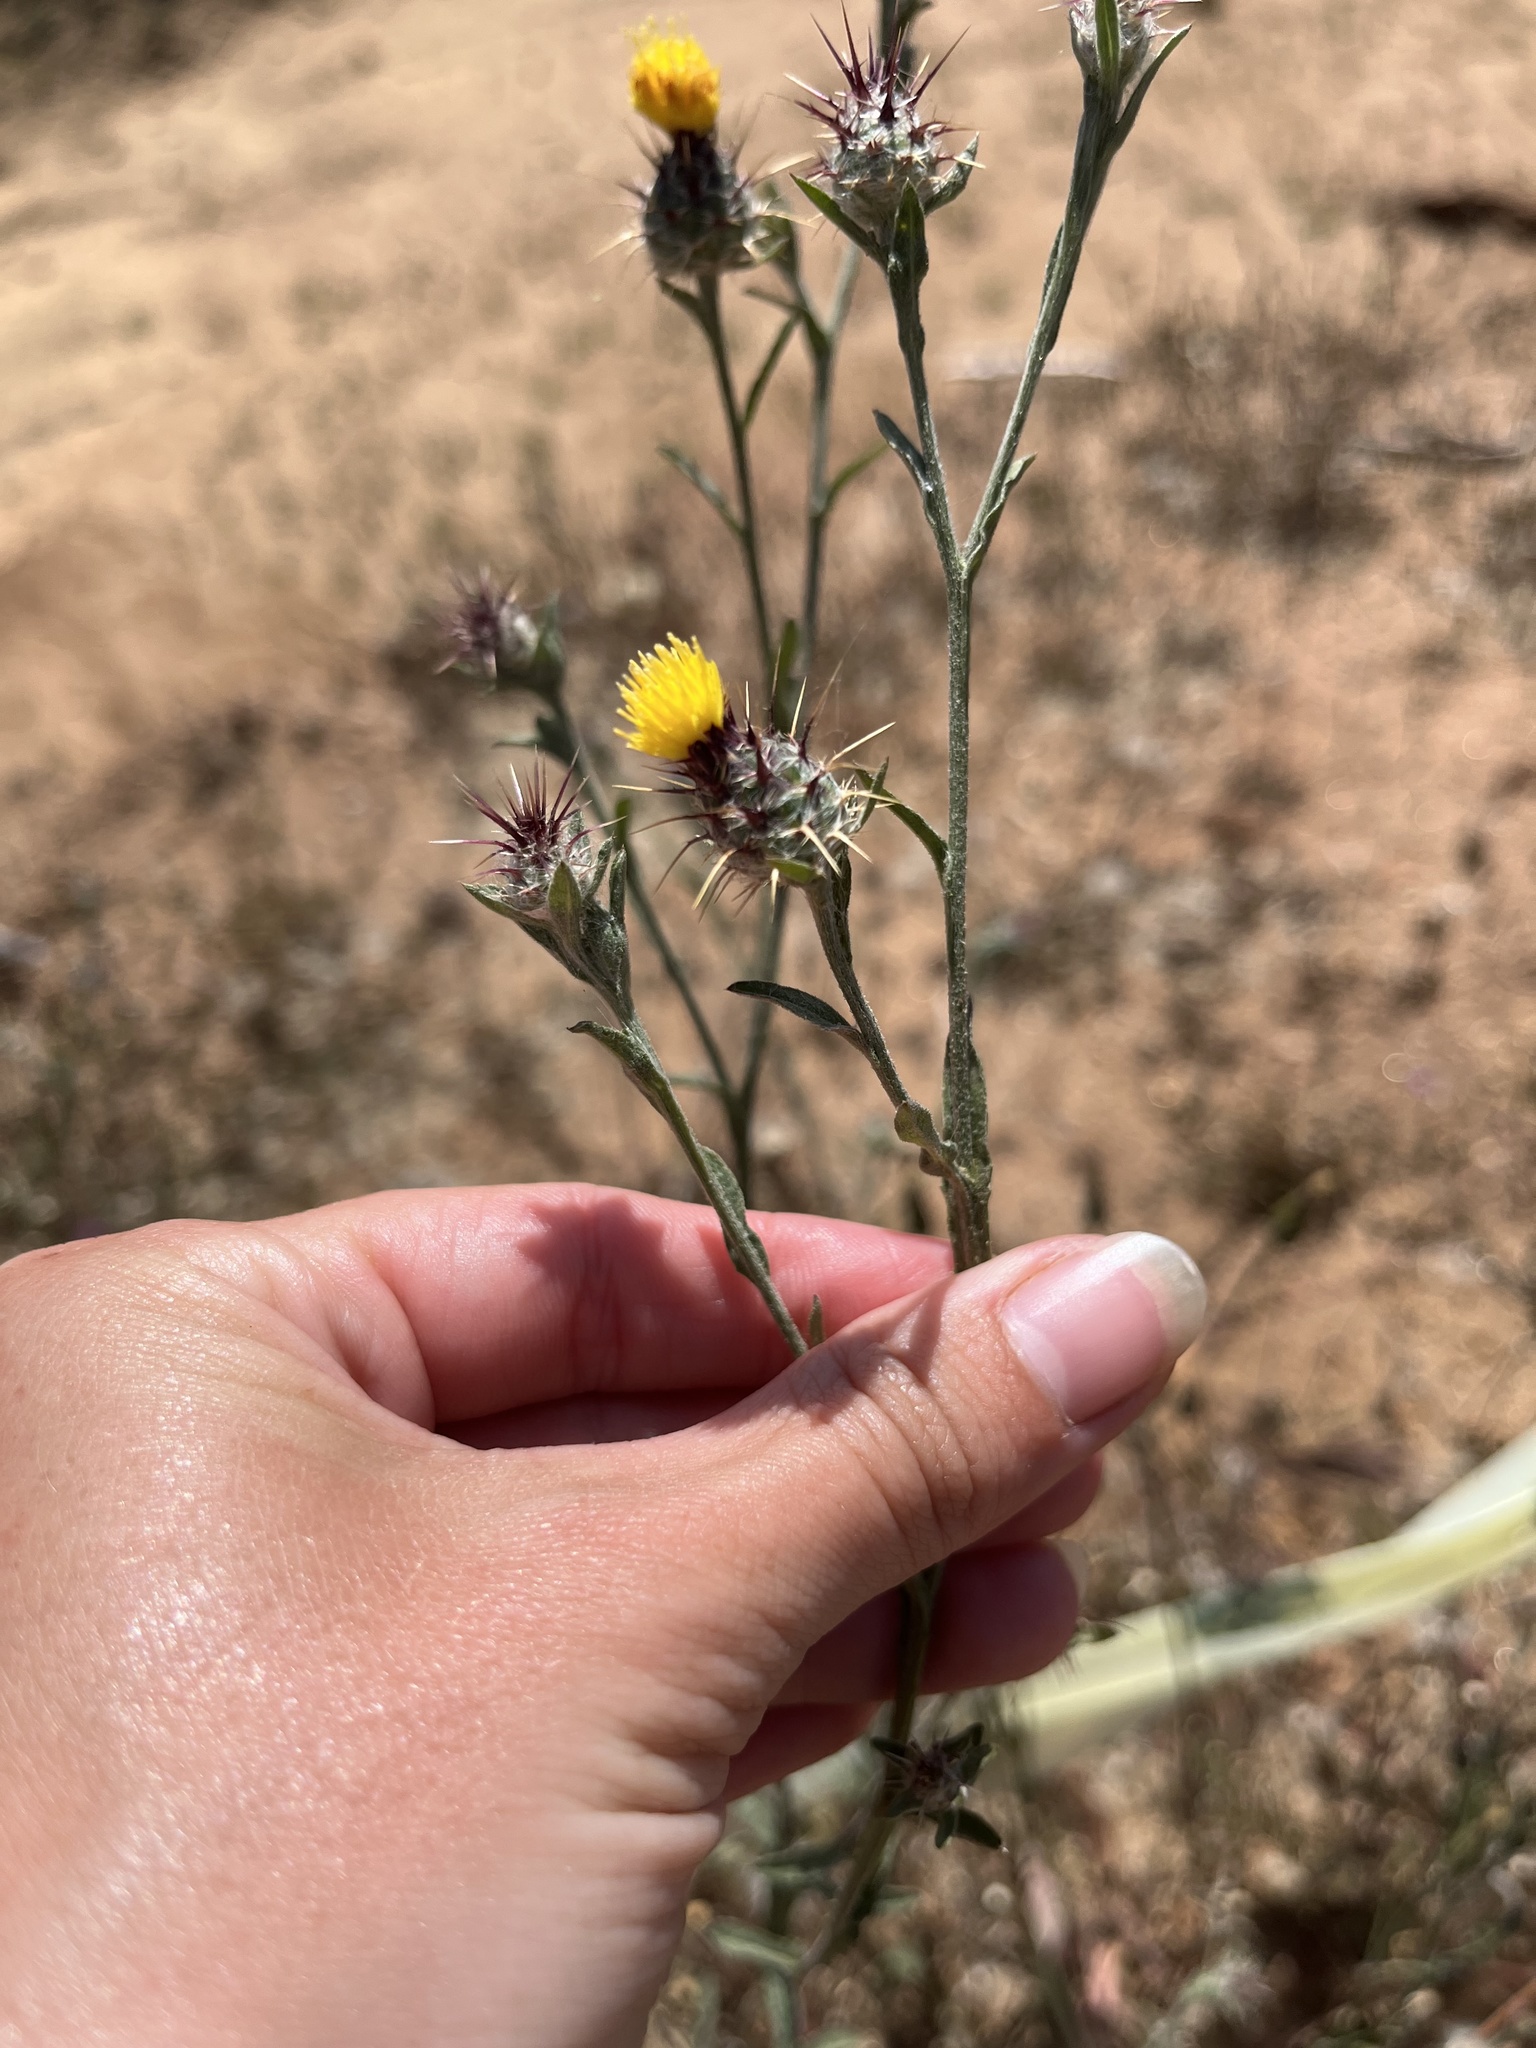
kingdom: Plantae
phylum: Tracheophyta
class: Magnoliopsida
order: Asterales
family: Asteraceae
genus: Centaurea
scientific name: Centaurea melitensis
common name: Maltese star-thistle
